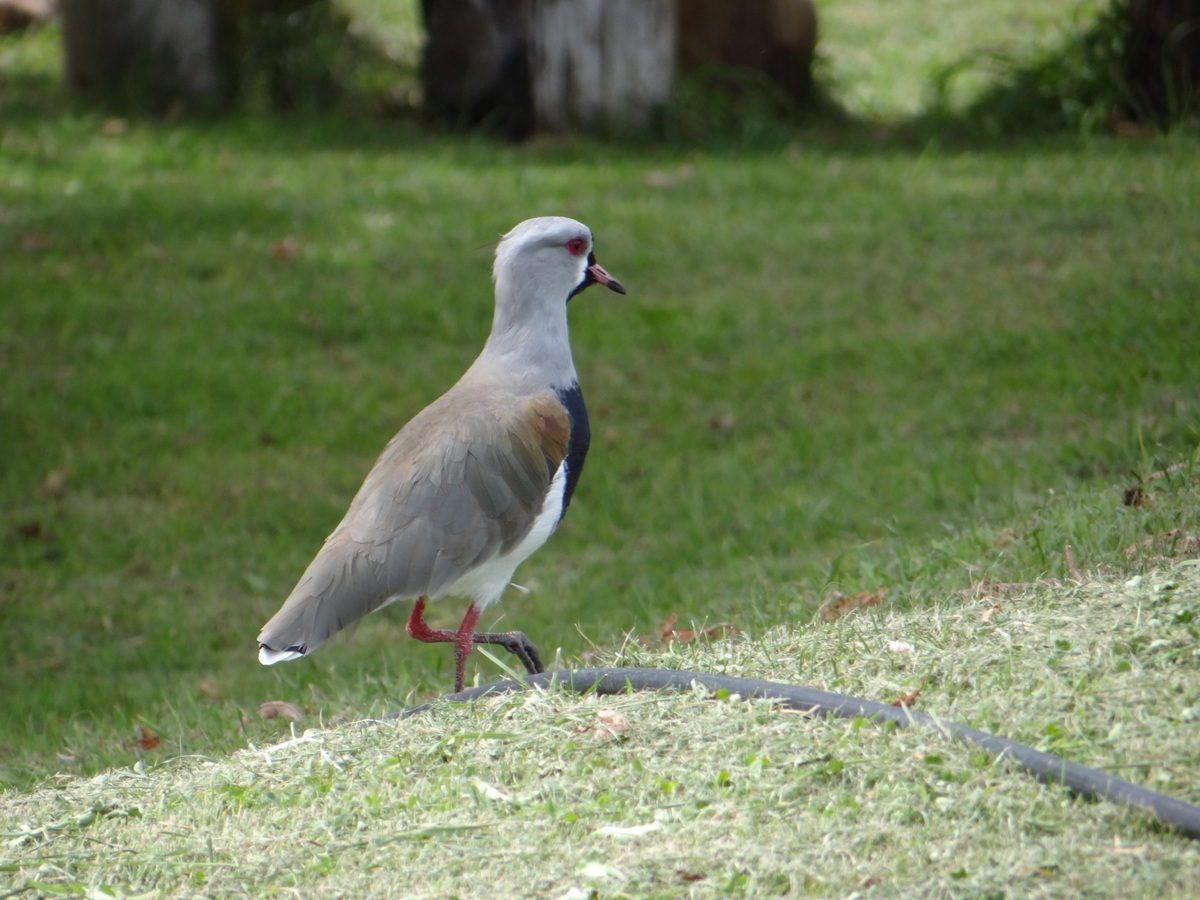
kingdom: Animalia
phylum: Chordata
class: Aves
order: Charadriiformes
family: Charadriidae
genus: Vanellus
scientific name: Vanellus chilensis
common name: Southern lapwing
